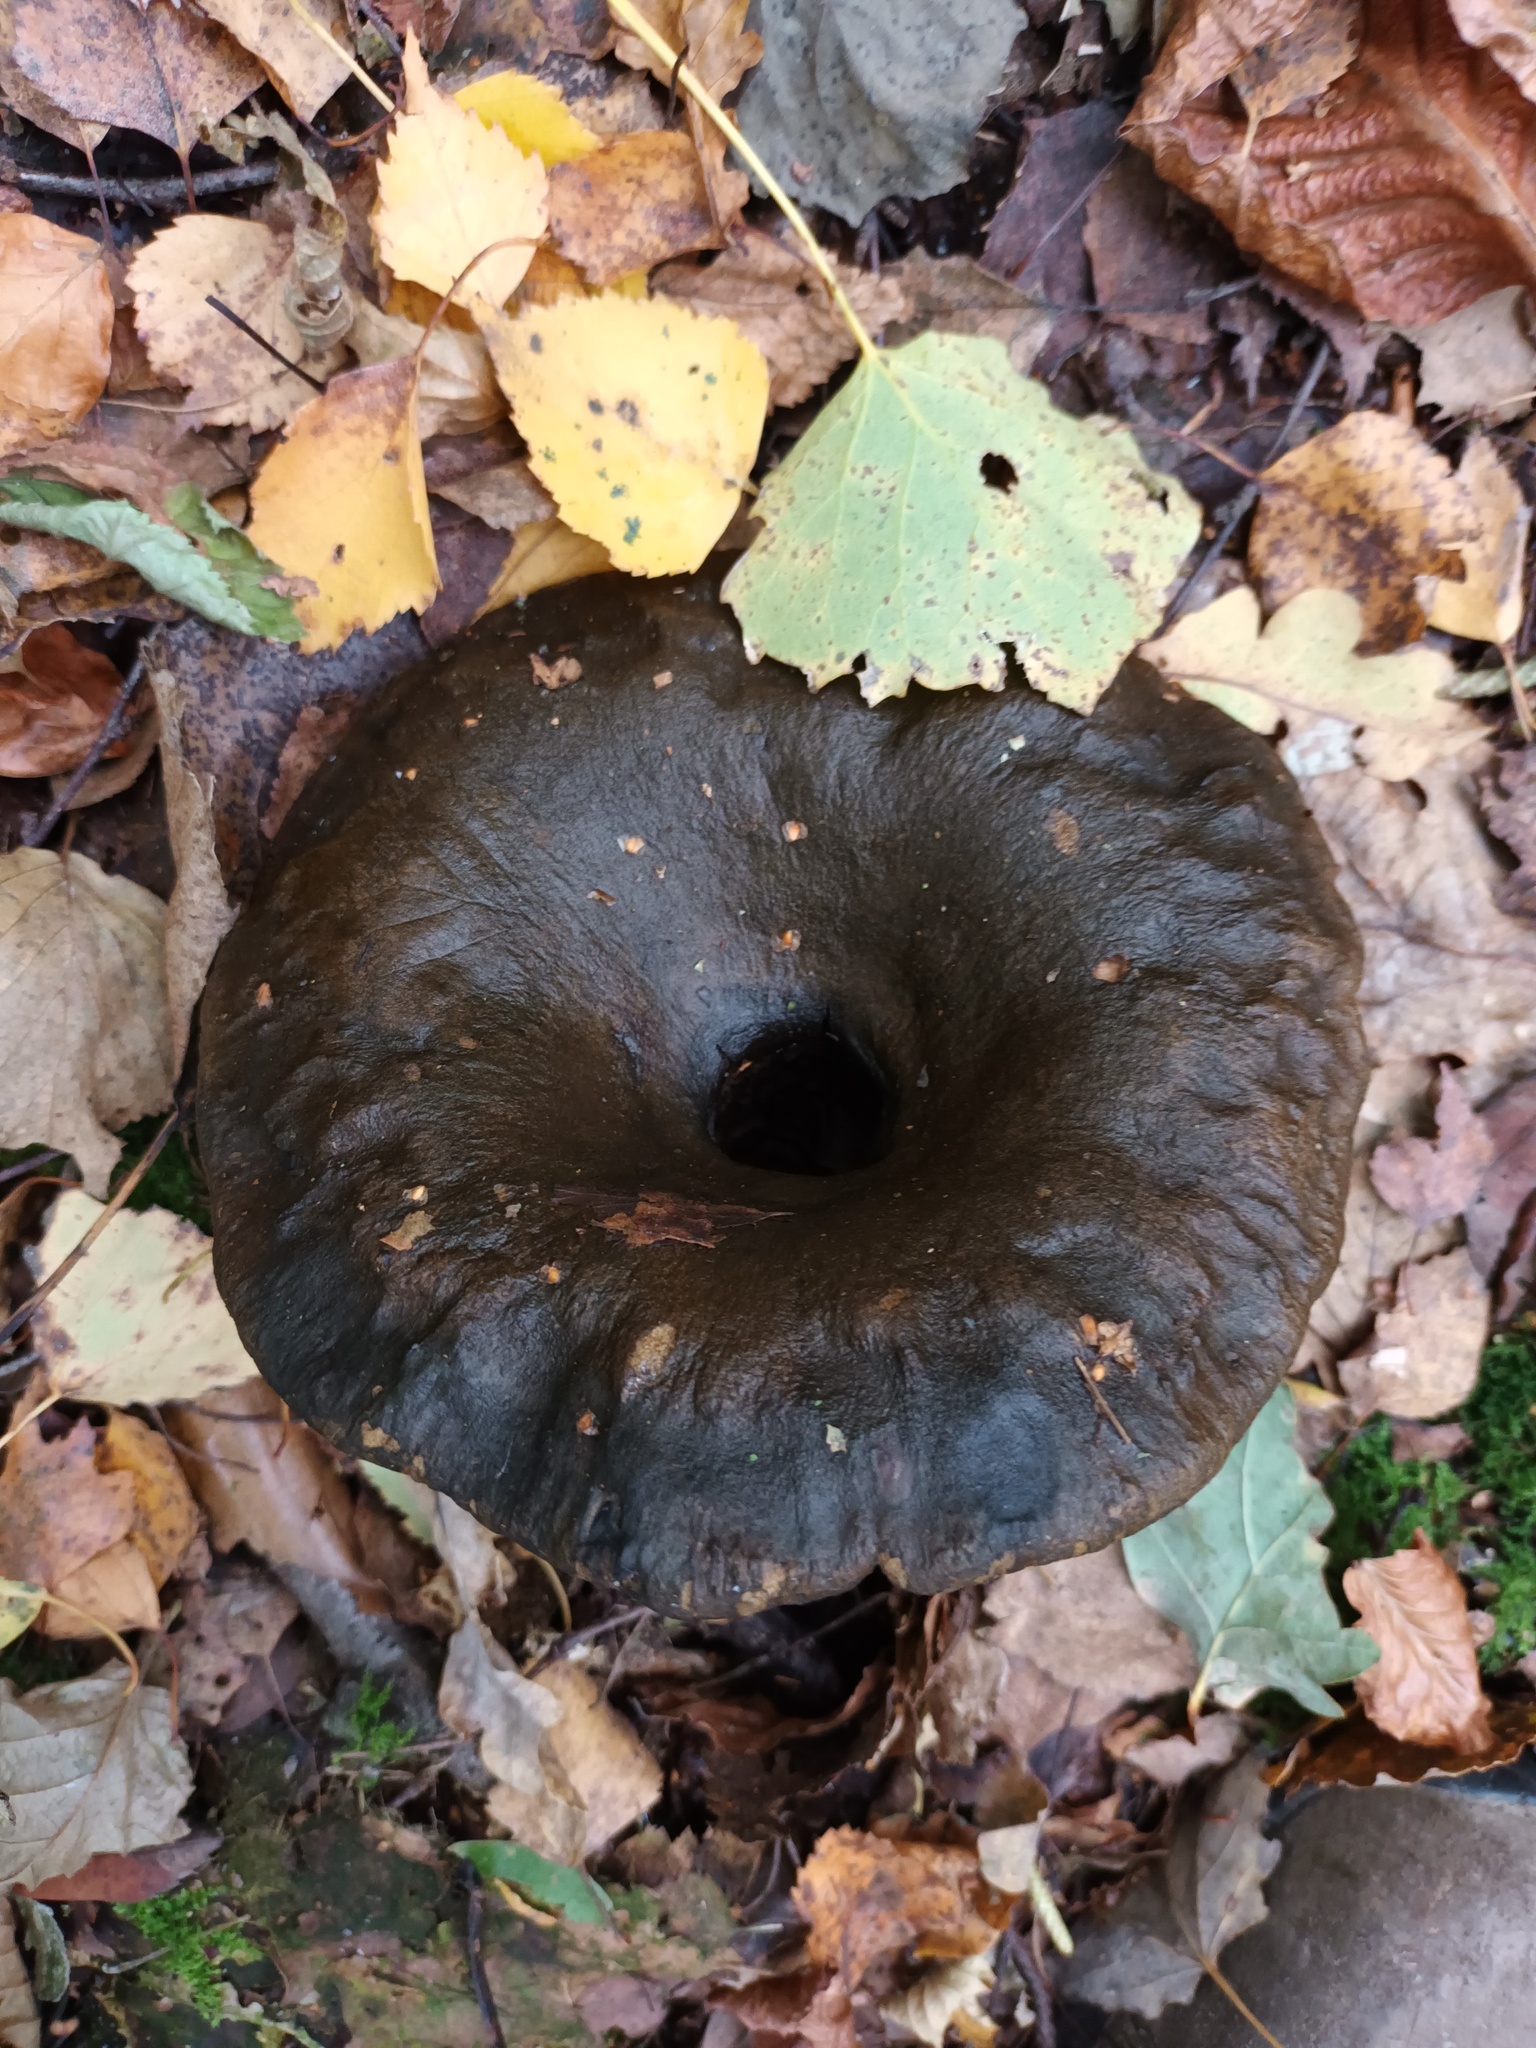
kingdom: Fungi
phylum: Basidiomycota
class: Agaricomycetes
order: Russulales
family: Russulaceae
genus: Lactarius
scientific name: Lactarius turpis
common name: Ugly milk-cap
